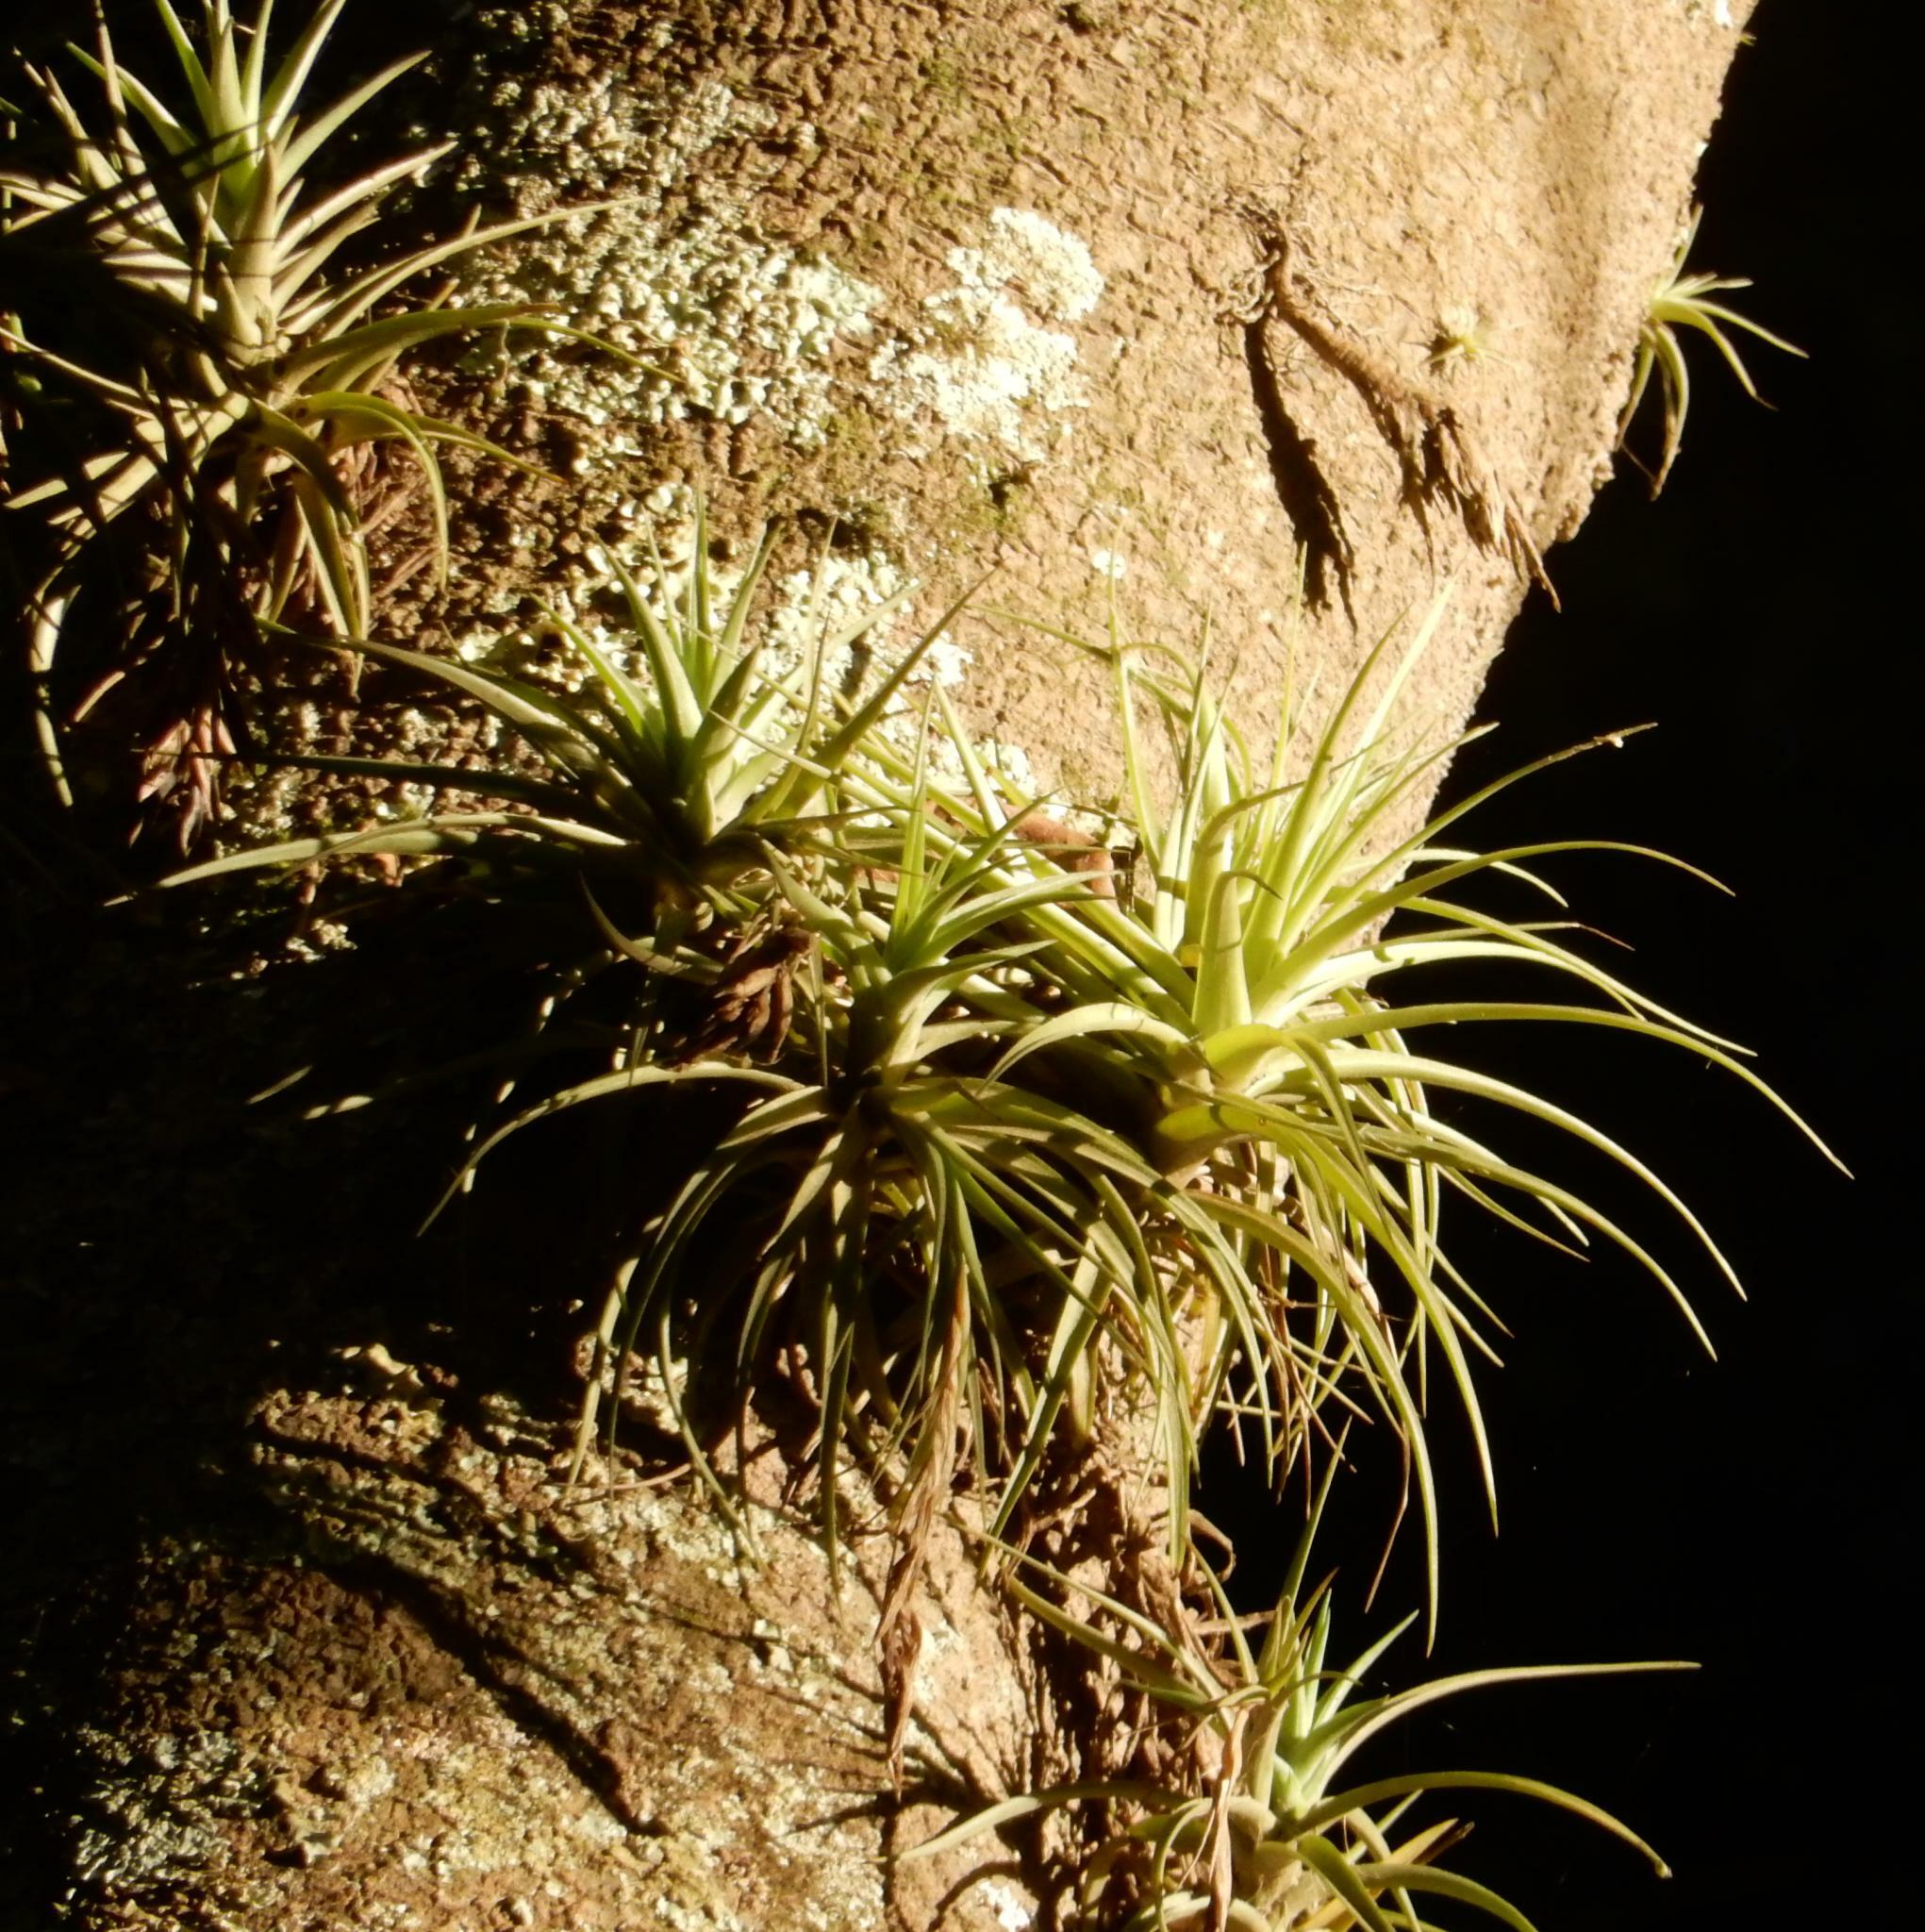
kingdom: Plantae
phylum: Tracheophyta
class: Liliopsida
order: Poales
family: Bromeliaceae
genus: Tillandsia
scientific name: Tillandsia aeranthos
